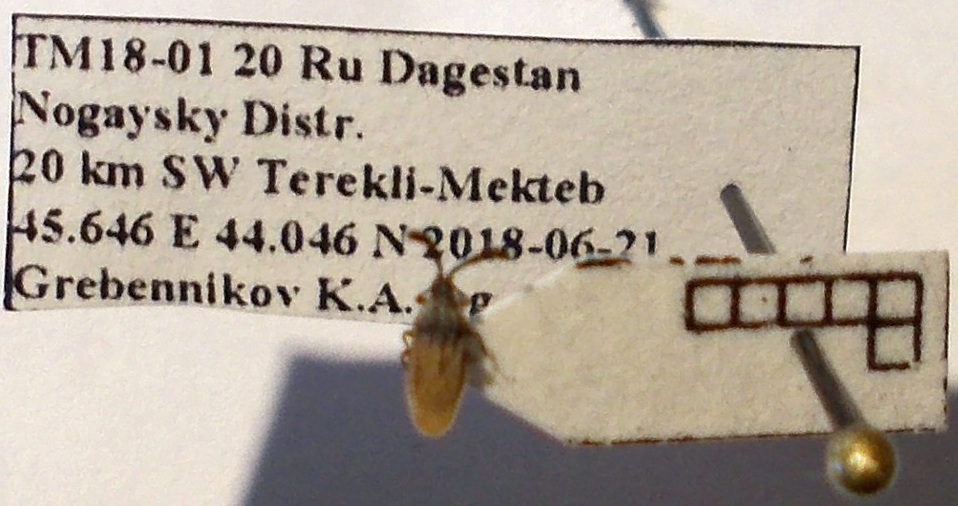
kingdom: Animalia
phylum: Arthropoda
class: Insecta
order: Hemiptera
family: Tingidae
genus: Copium
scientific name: Copium teucrii
